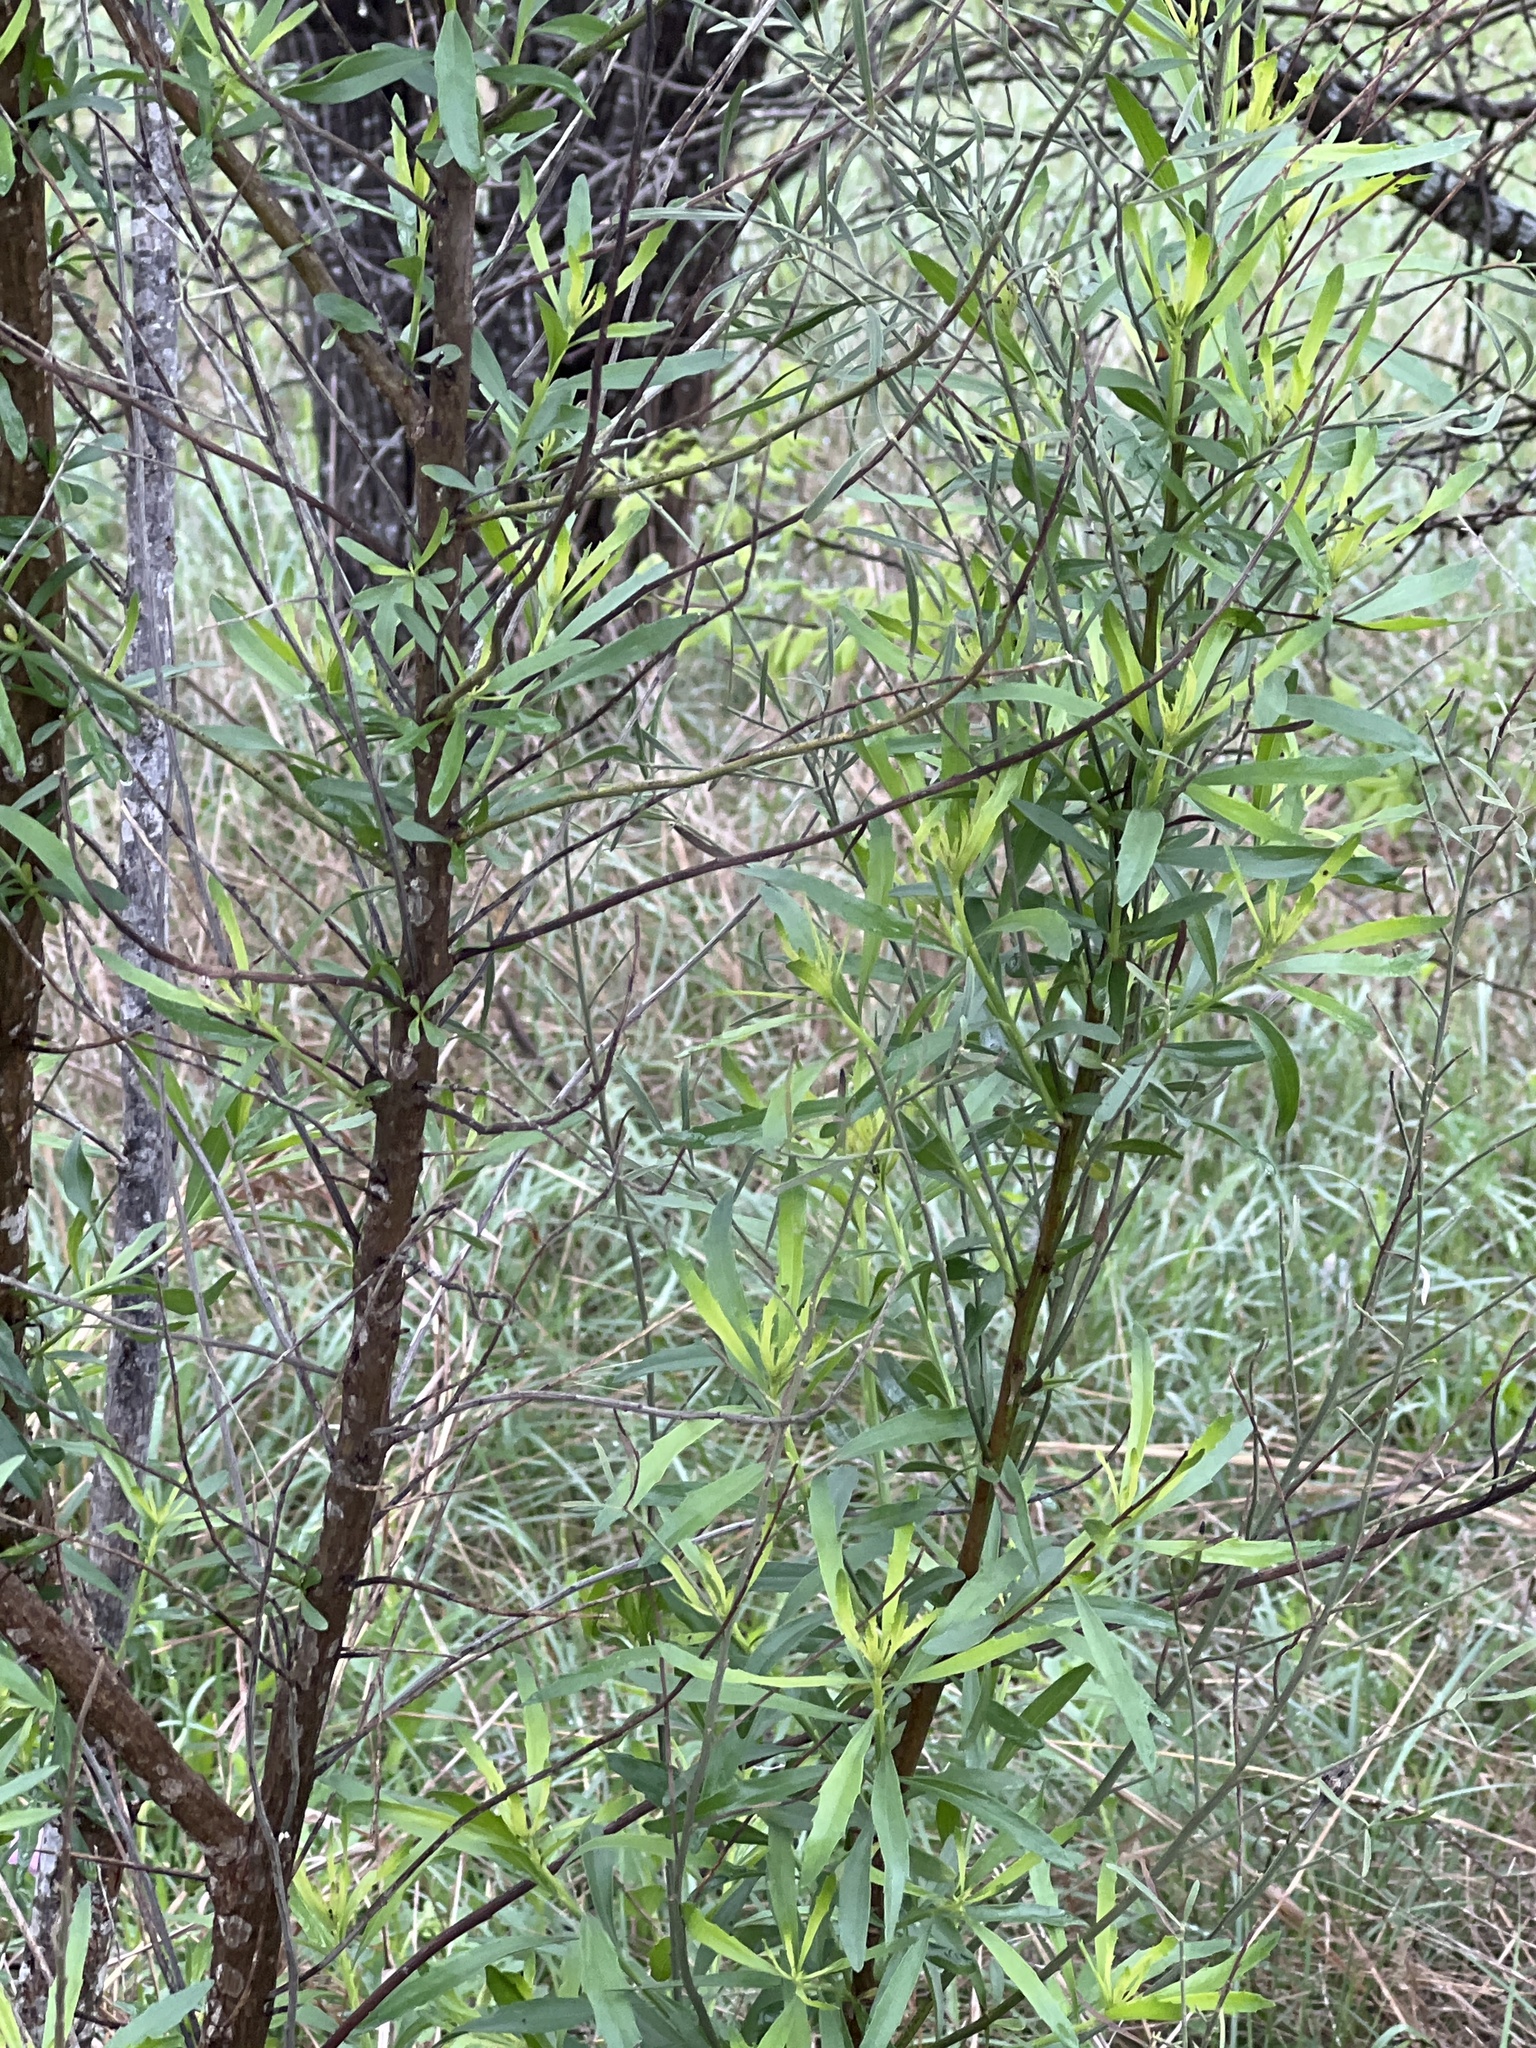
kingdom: Plantae
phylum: Tracheophyta
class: Magnoliopsida
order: Asterales
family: Asteraceae
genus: Baccharis
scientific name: Baccharis neglecta
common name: Roosevelt-weed
